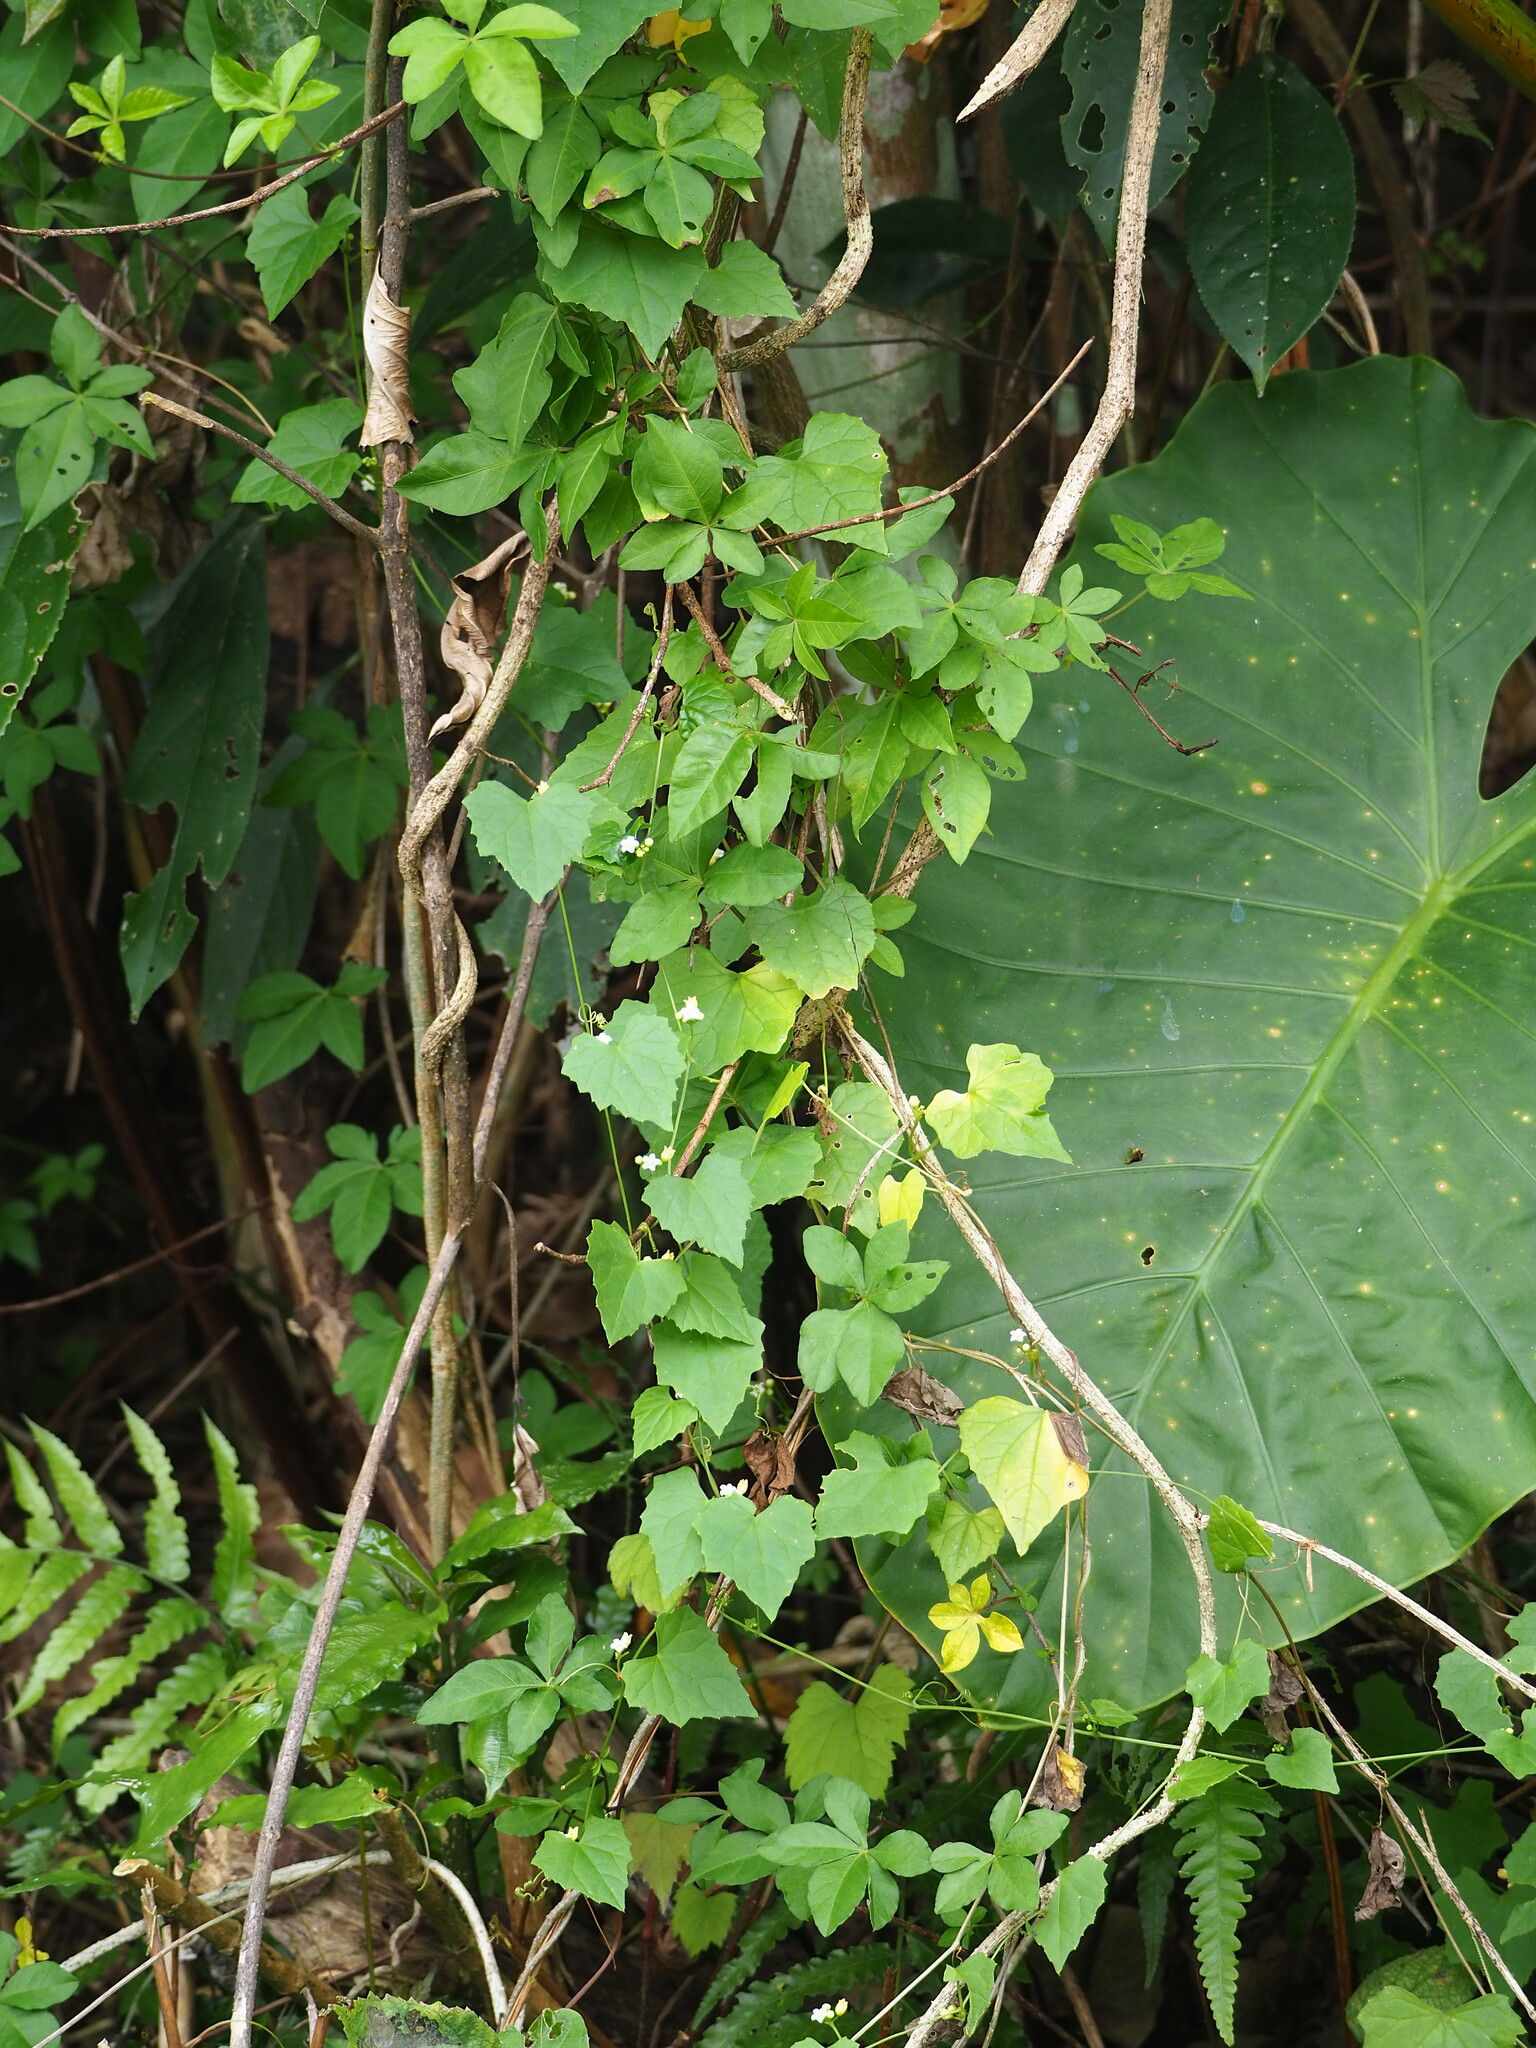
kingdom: Plantae
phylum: Tracheophyta
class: Magnoliopsida
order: Cucurbitales
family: Cucurbitaceae
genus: Zehneria
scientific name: Zehneria guamensis
